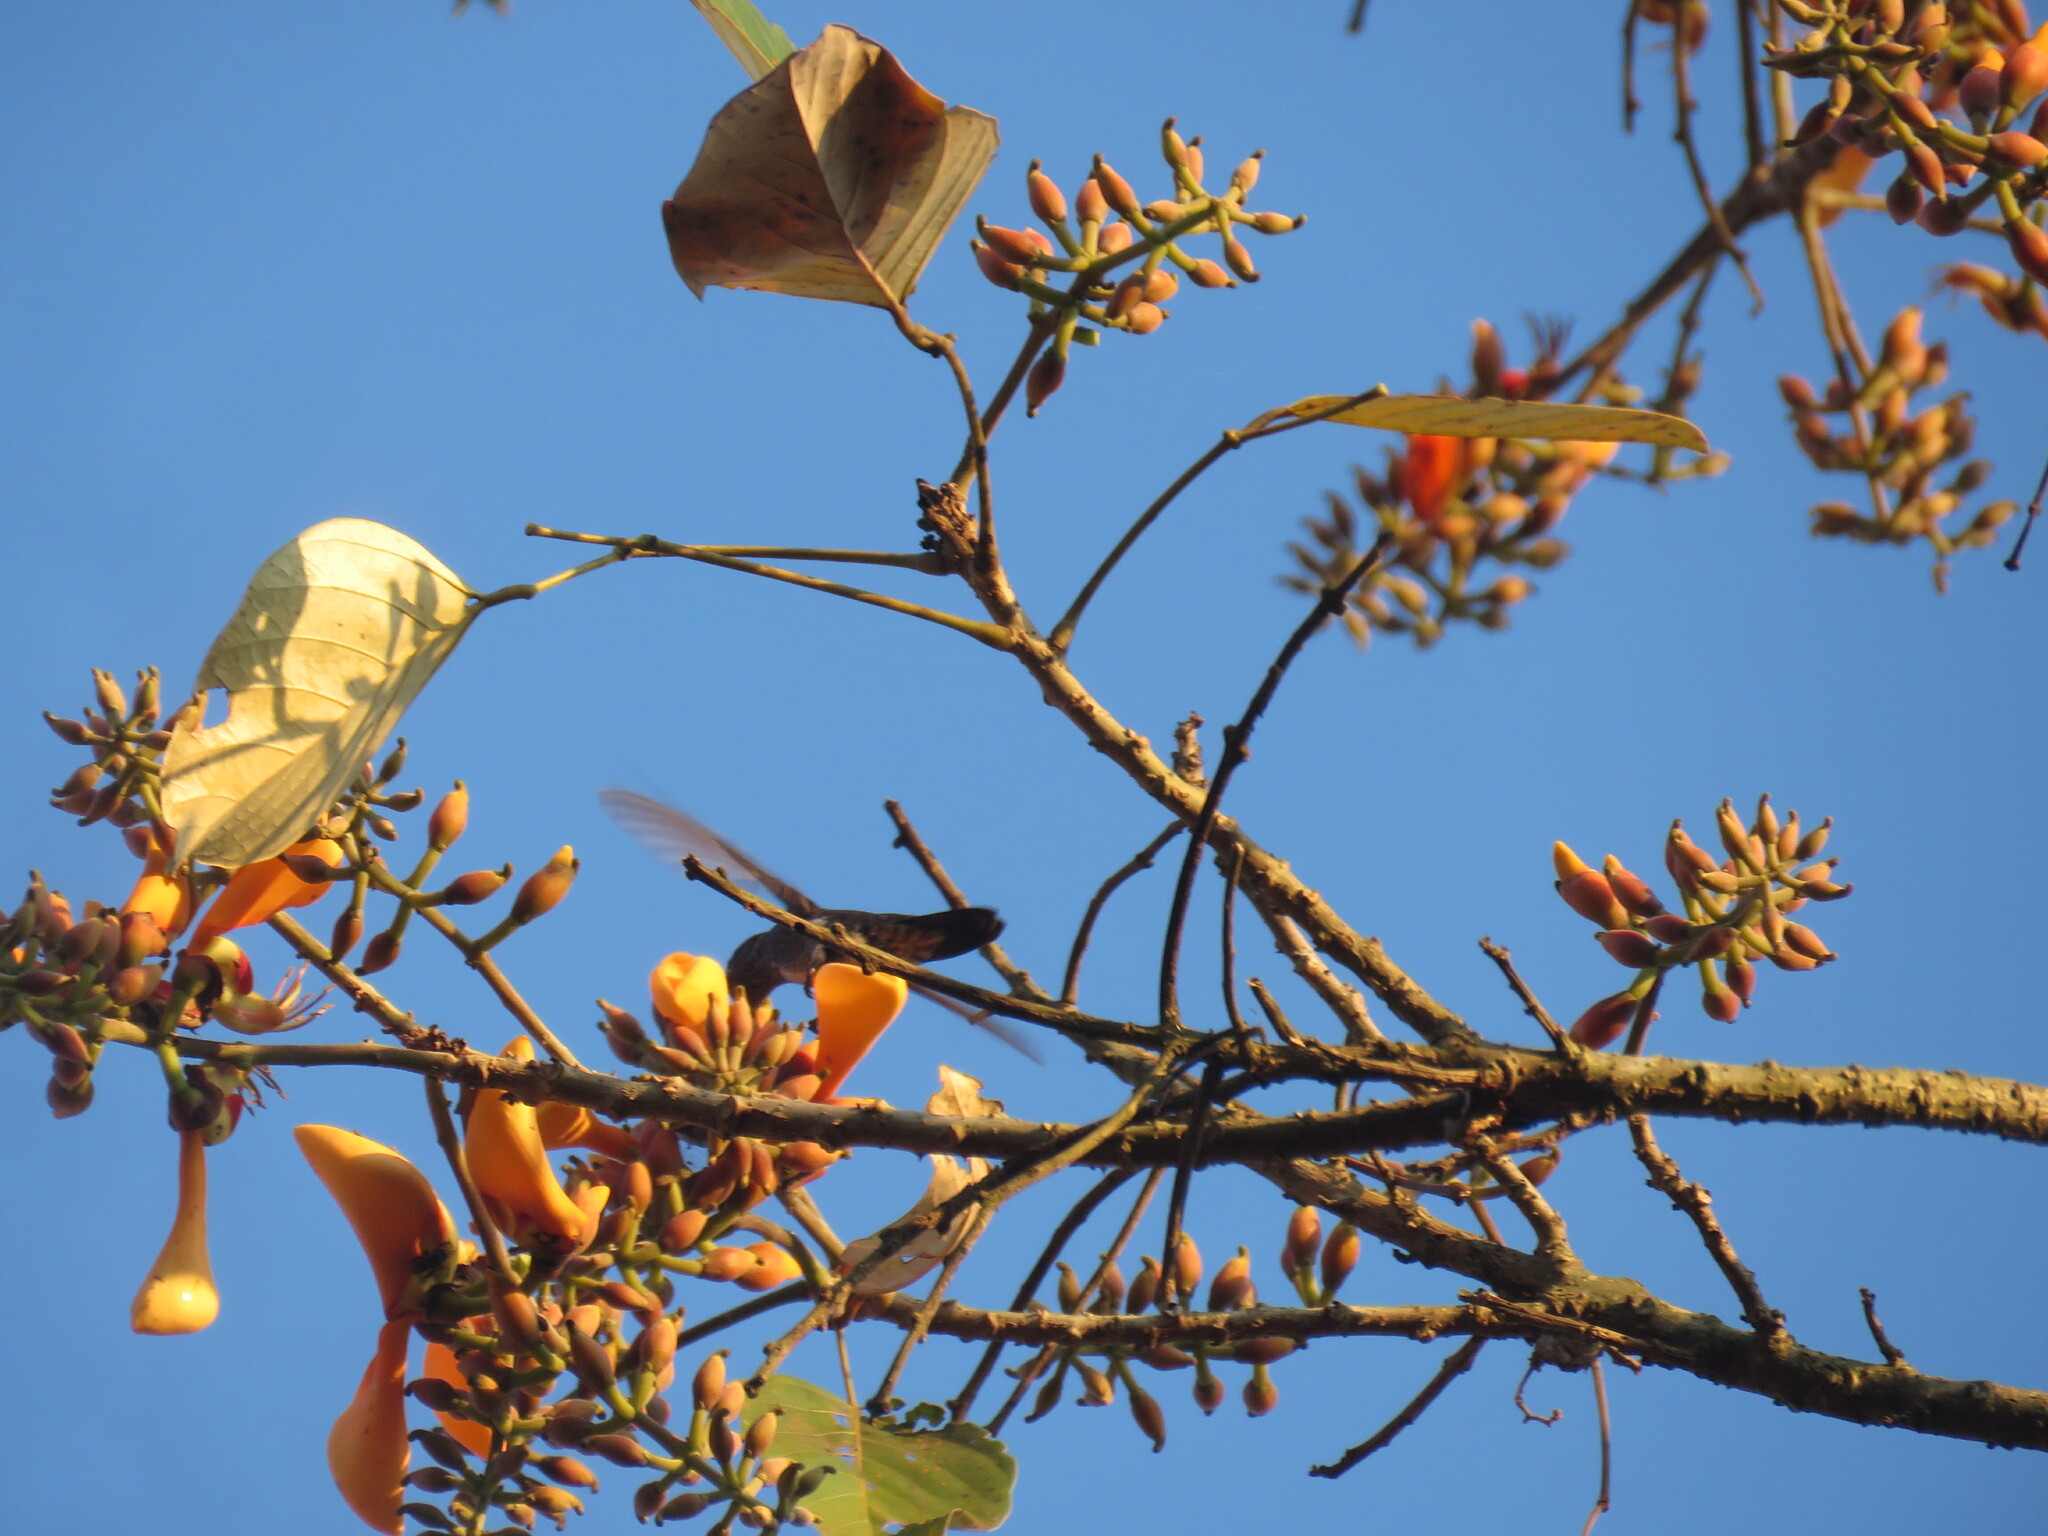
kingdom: Animalia
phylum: Chordata
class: Aves
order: Apodiformes
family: Trochilidae
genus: Chionomesa
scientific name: Chionomesa lactea
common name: Sapphire-spangled emerald
